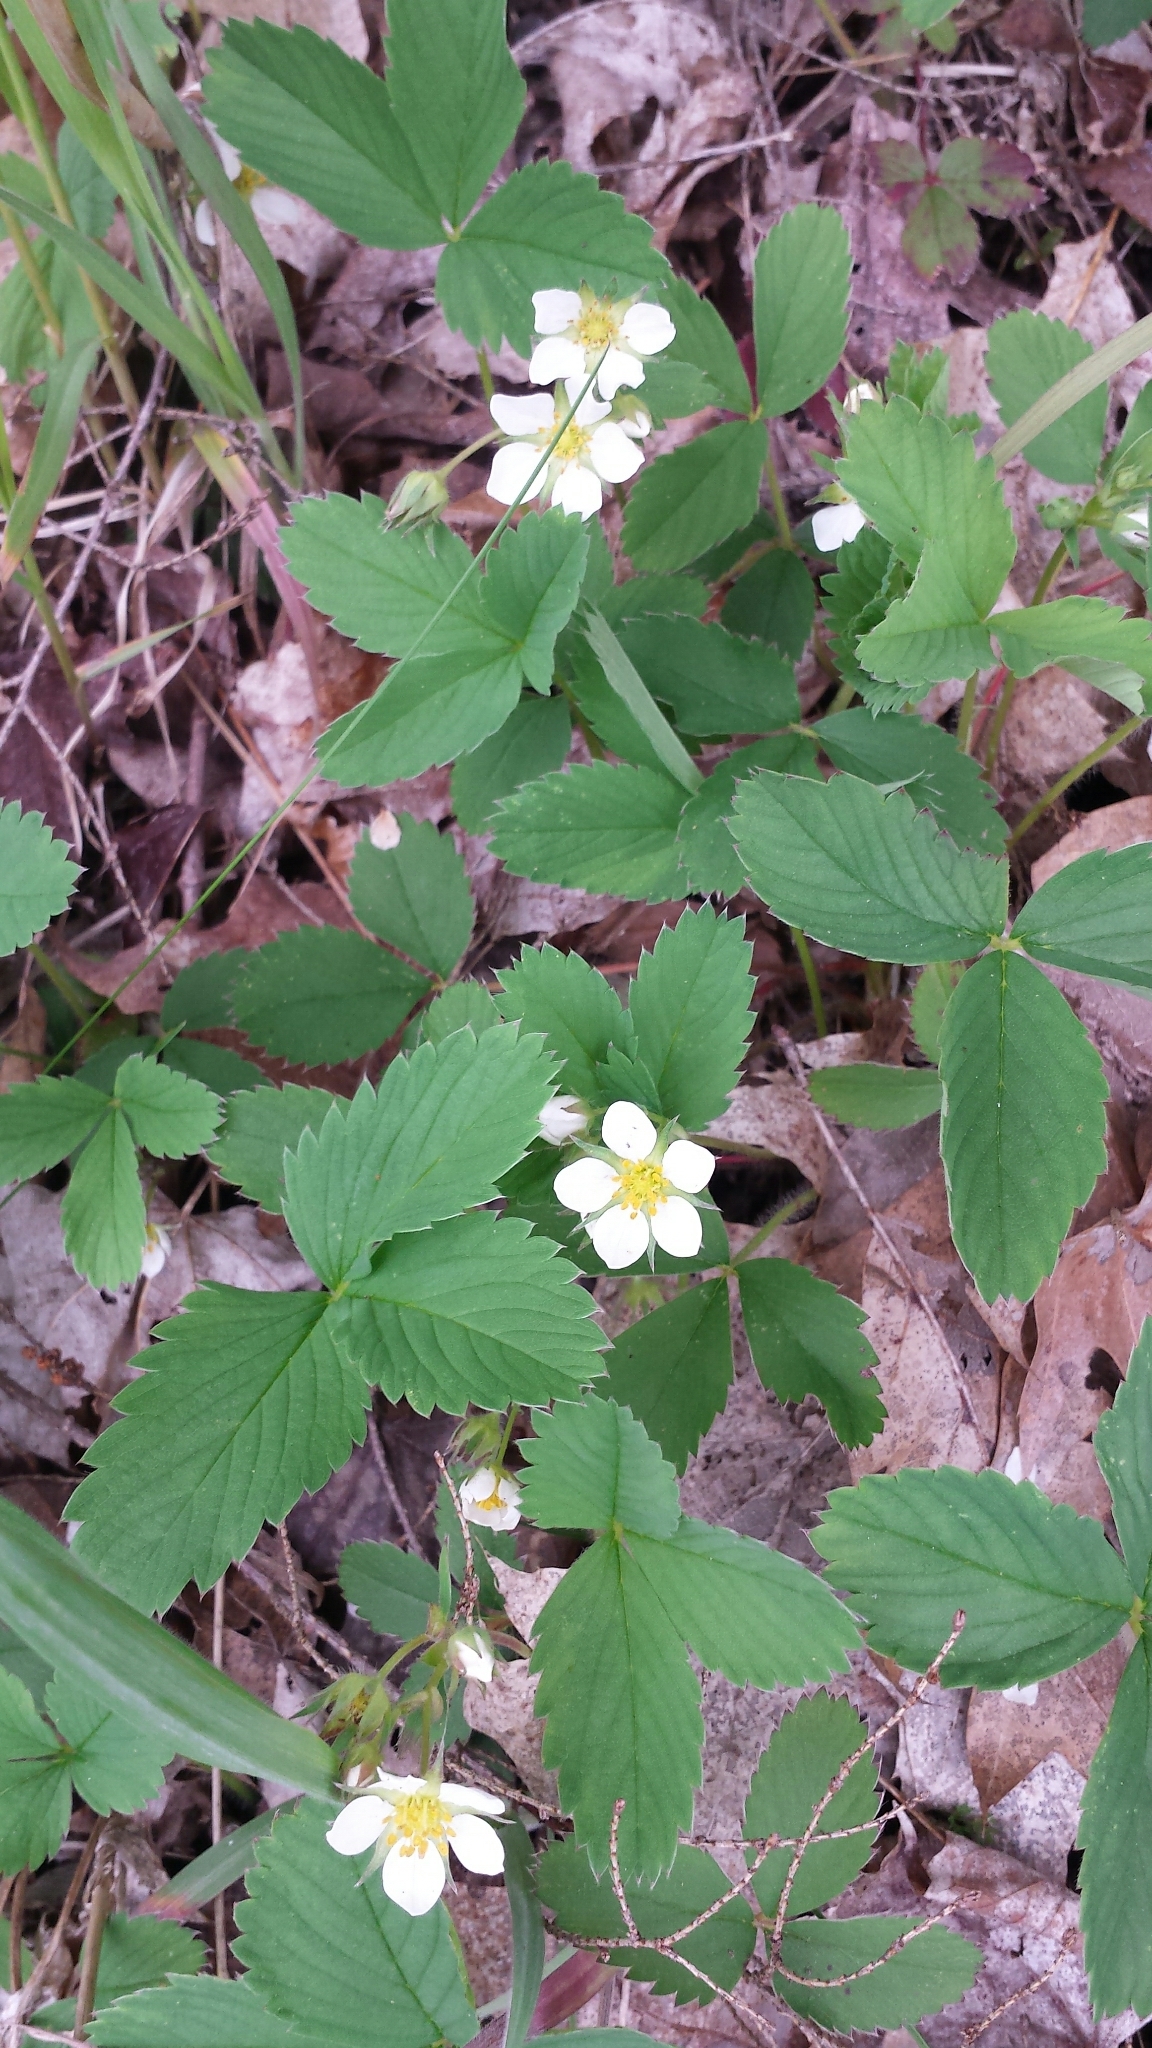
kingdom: Plantae
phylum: Tracheophyta
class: Magnoliopsida
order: Rosales
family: Rosaceae
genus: Fragaria
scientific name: Fragaria virginiana
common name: Thickleaved wild strawberry
